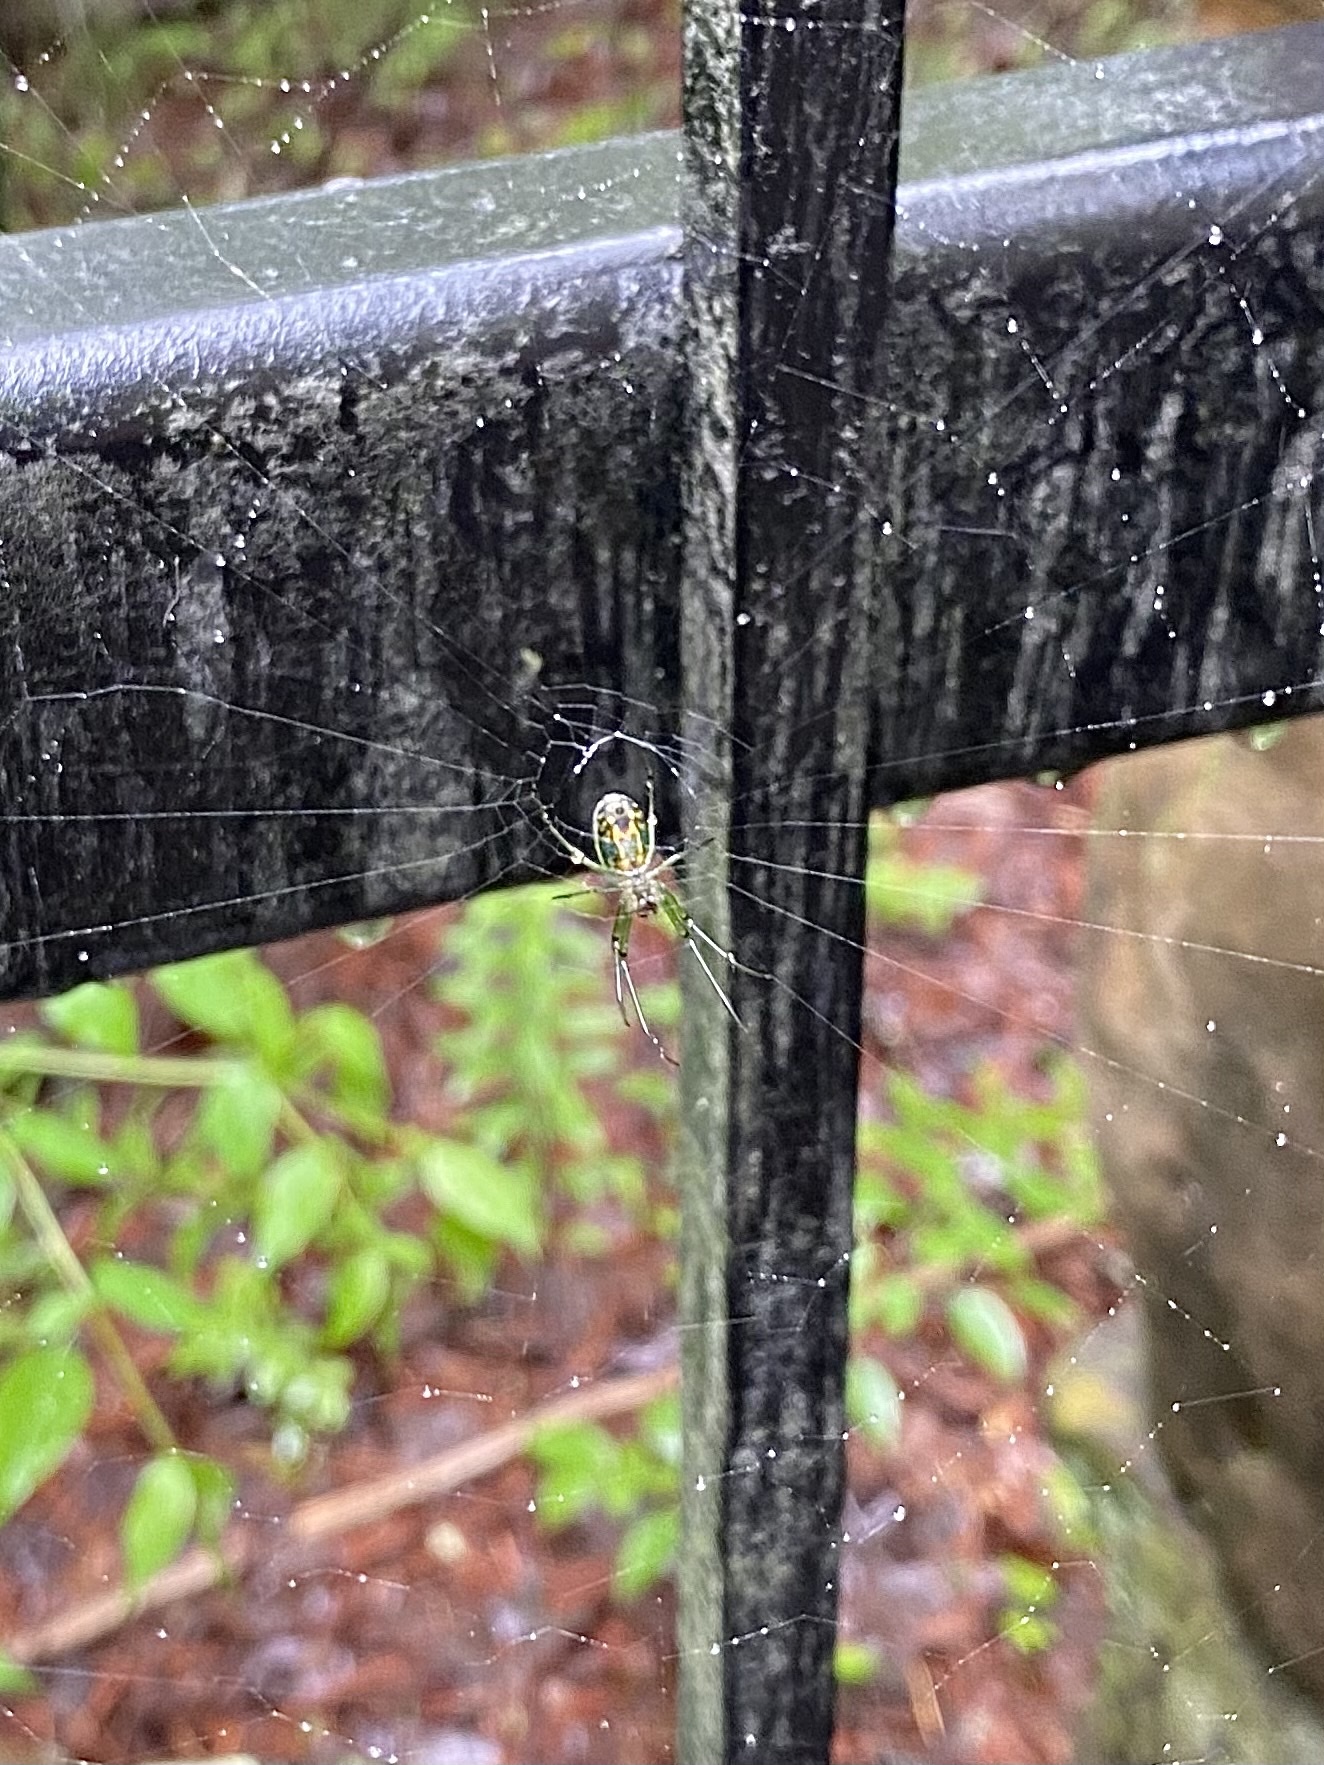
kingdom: Animalia
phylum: Arthropoda
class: Arachnida
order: Araneae
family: Tetragnathidae
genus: Leucauge
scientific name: Leucauge venusta
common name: Longjawed orb weavers
